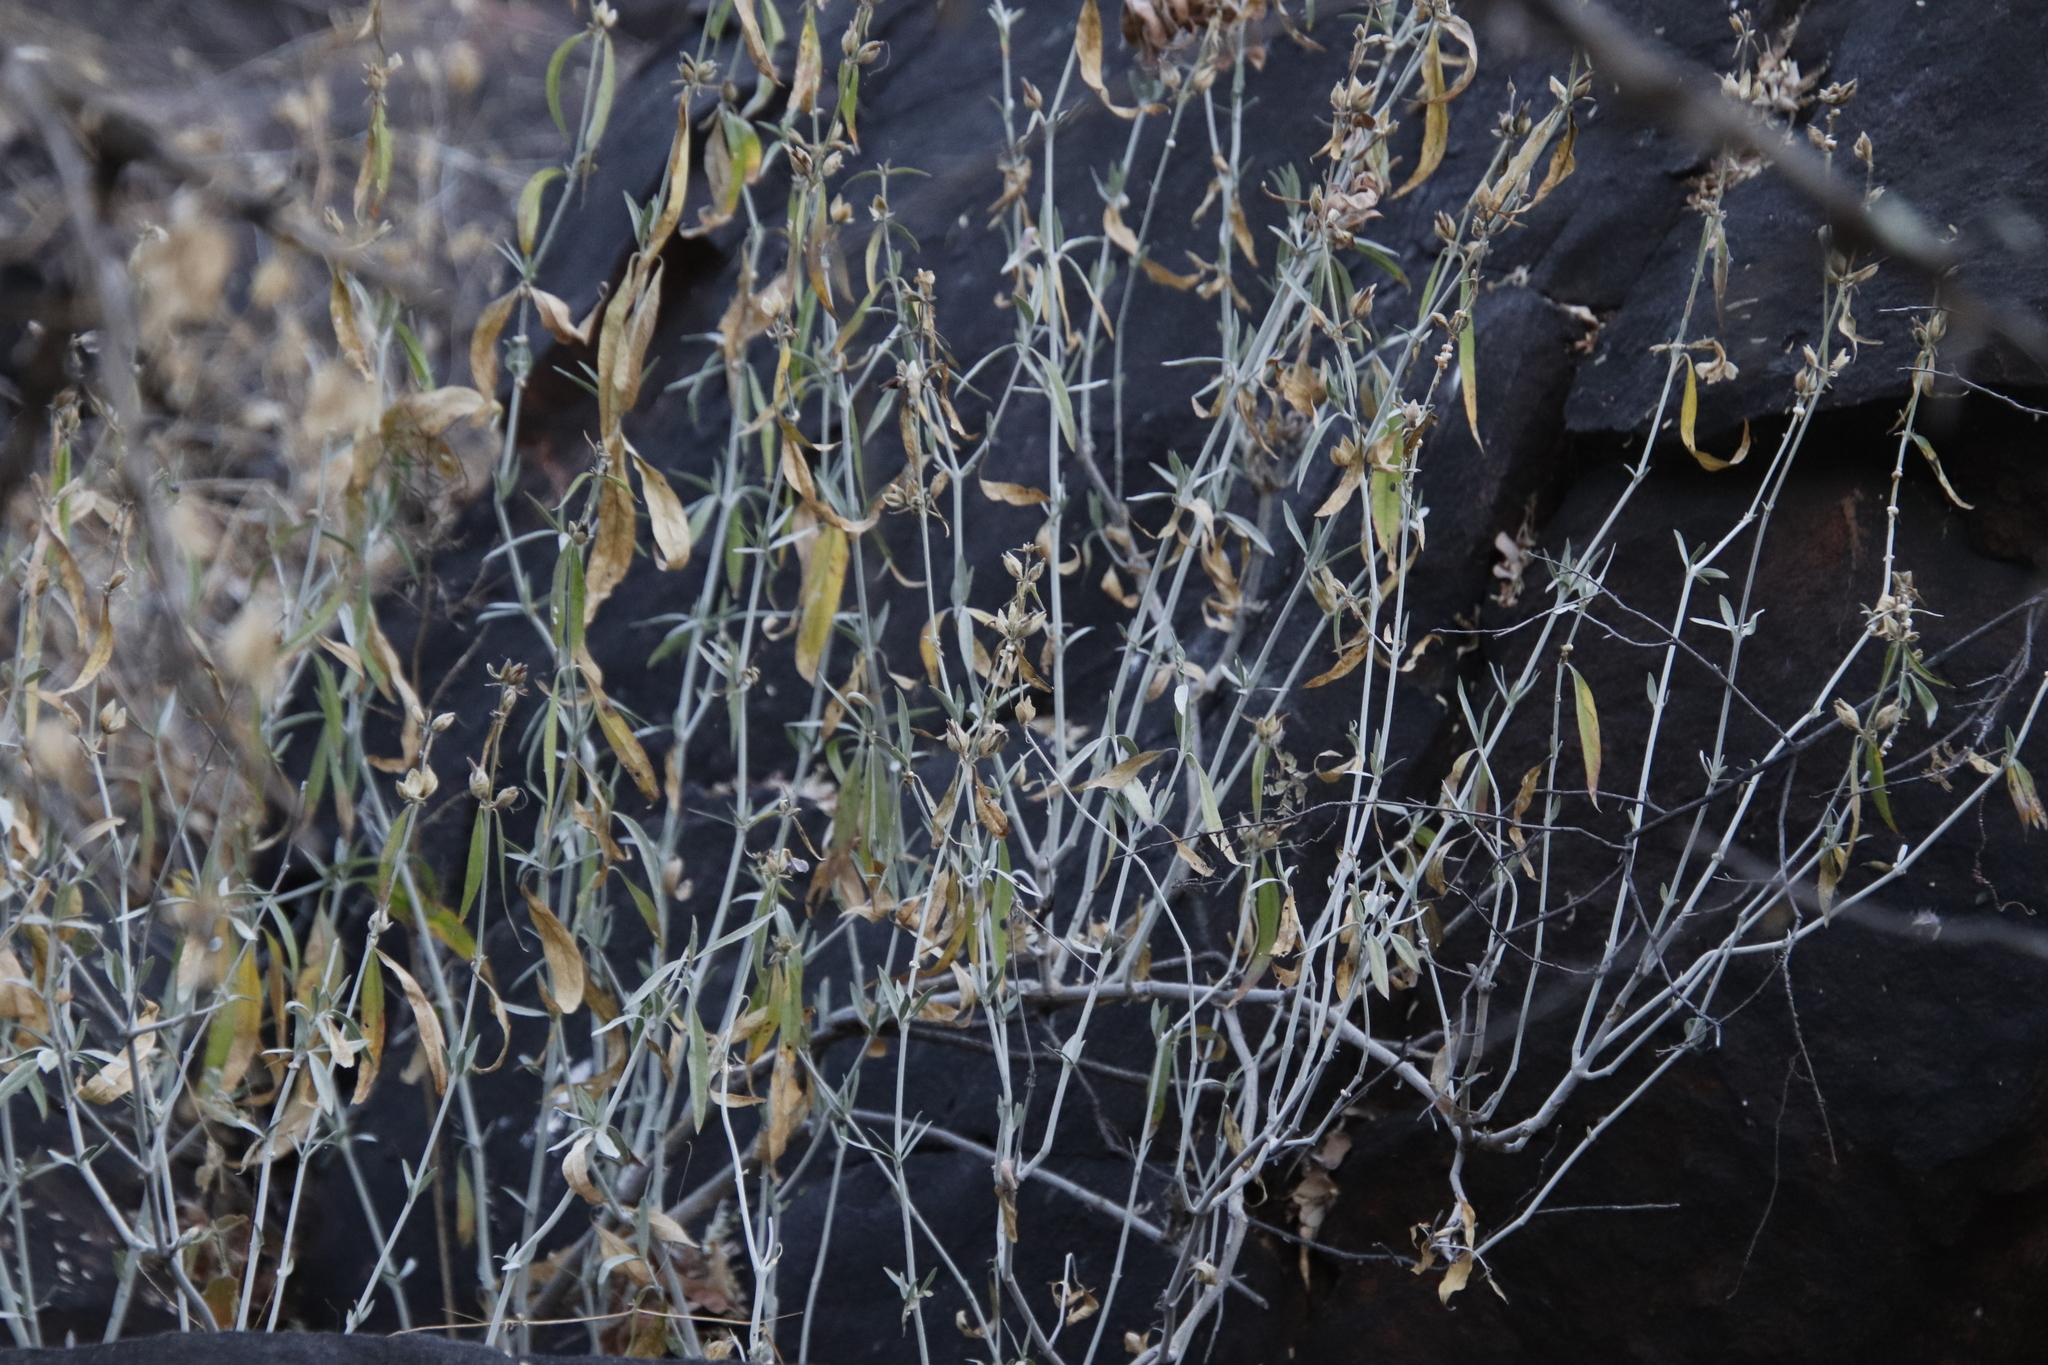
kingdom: Plantae
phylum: Tracheophyta
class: Magnoliopsida
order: Lamiales
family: Acanthaceae
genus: Barleria
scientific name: Barleria lancifolia
